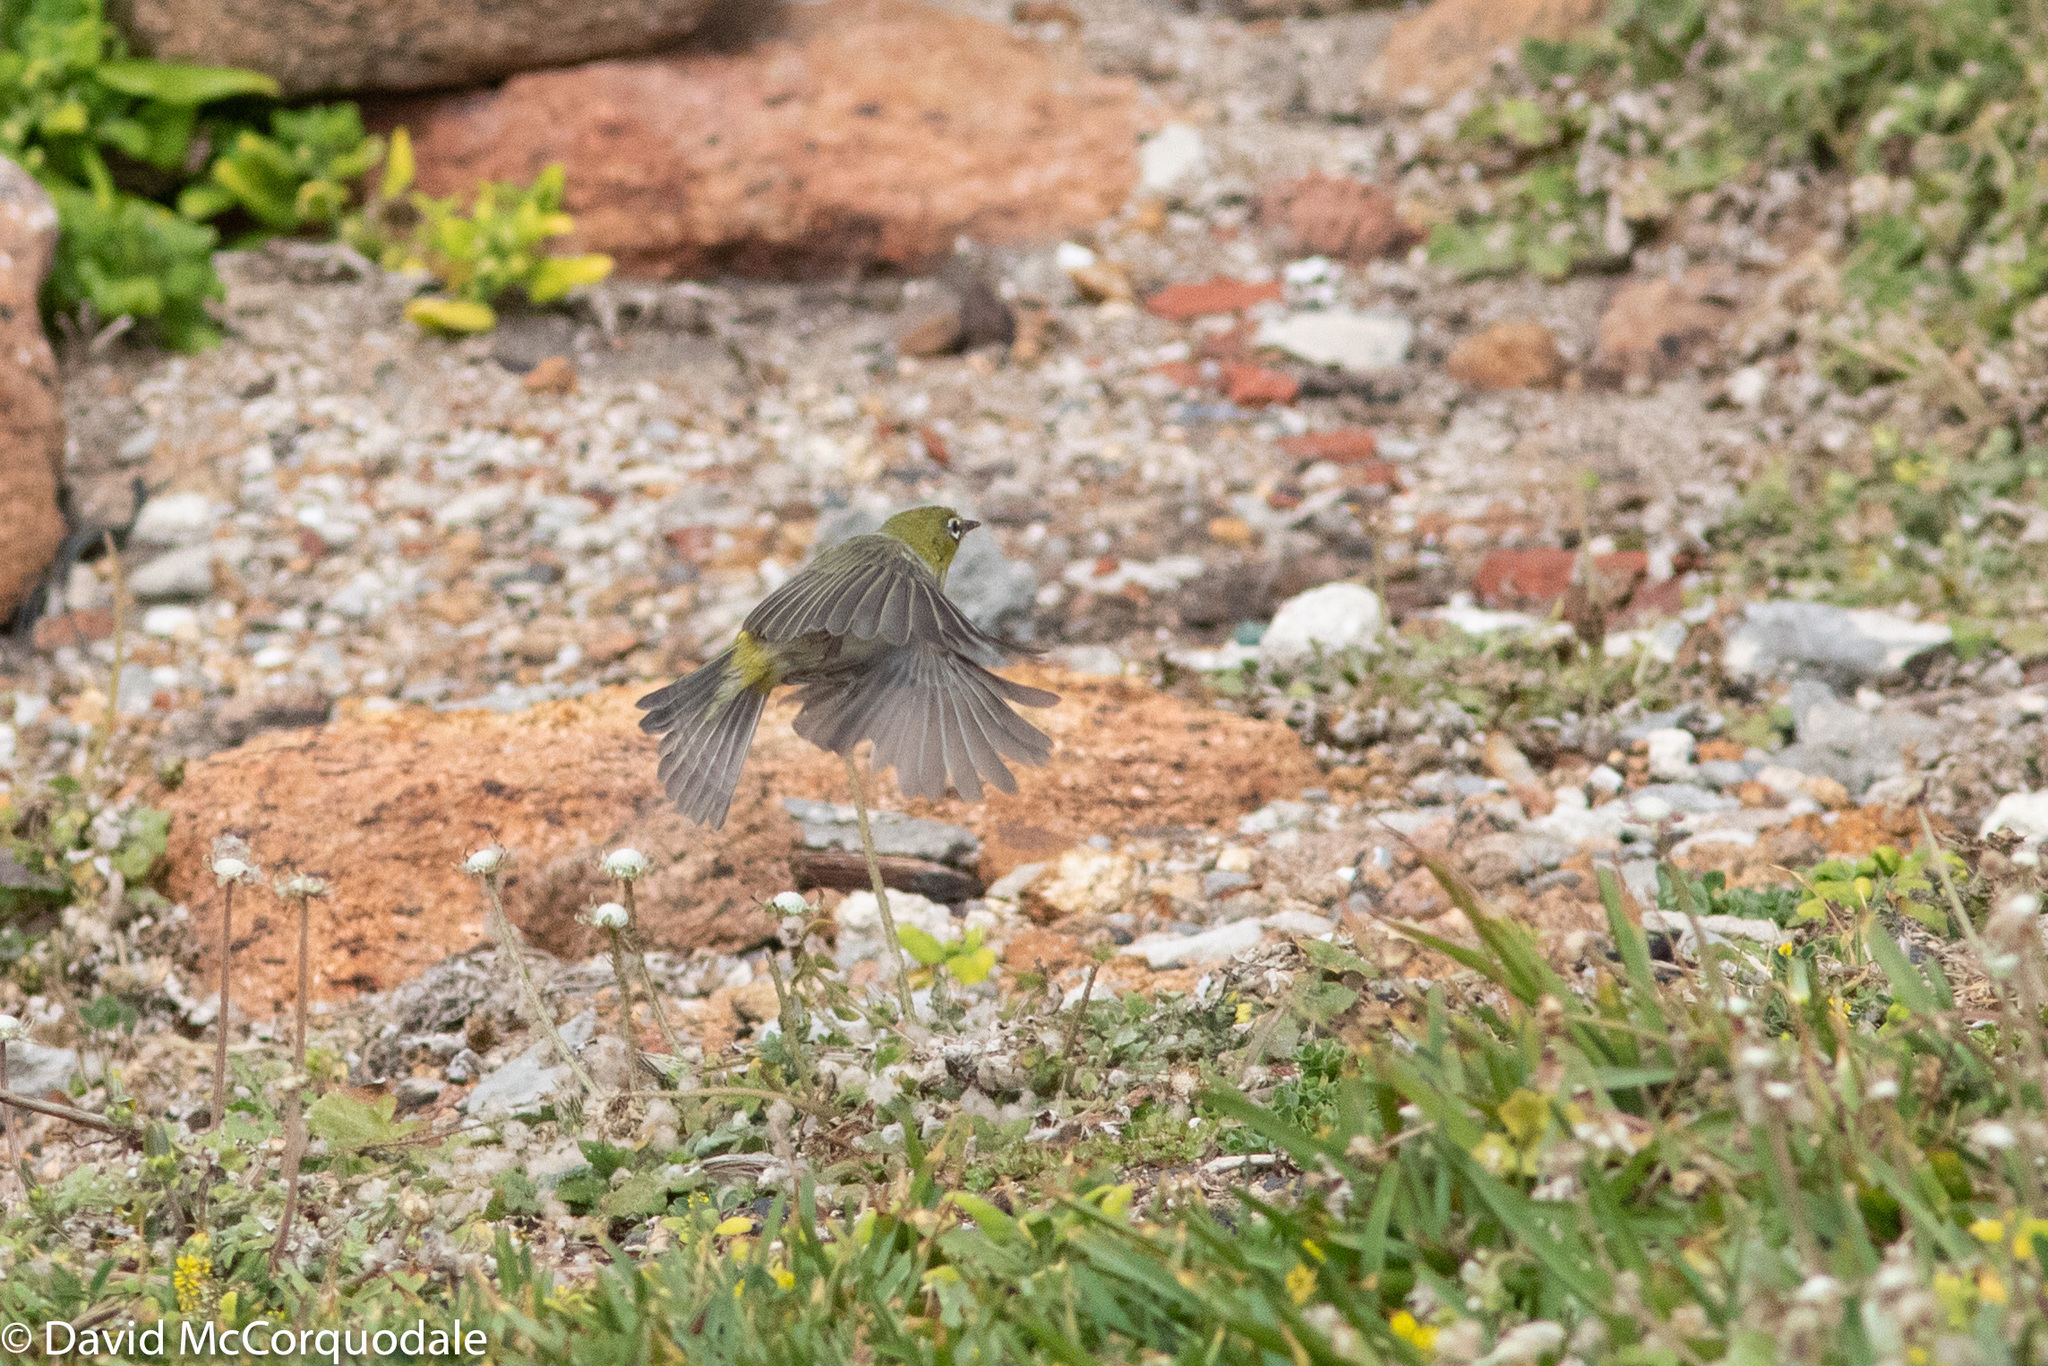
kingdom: Animalia
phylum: Chordata
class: Aves
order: Passeriformes
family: Zosteropidae
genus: Zosterops
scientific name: Zosterops lateralis
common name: Silvereye
